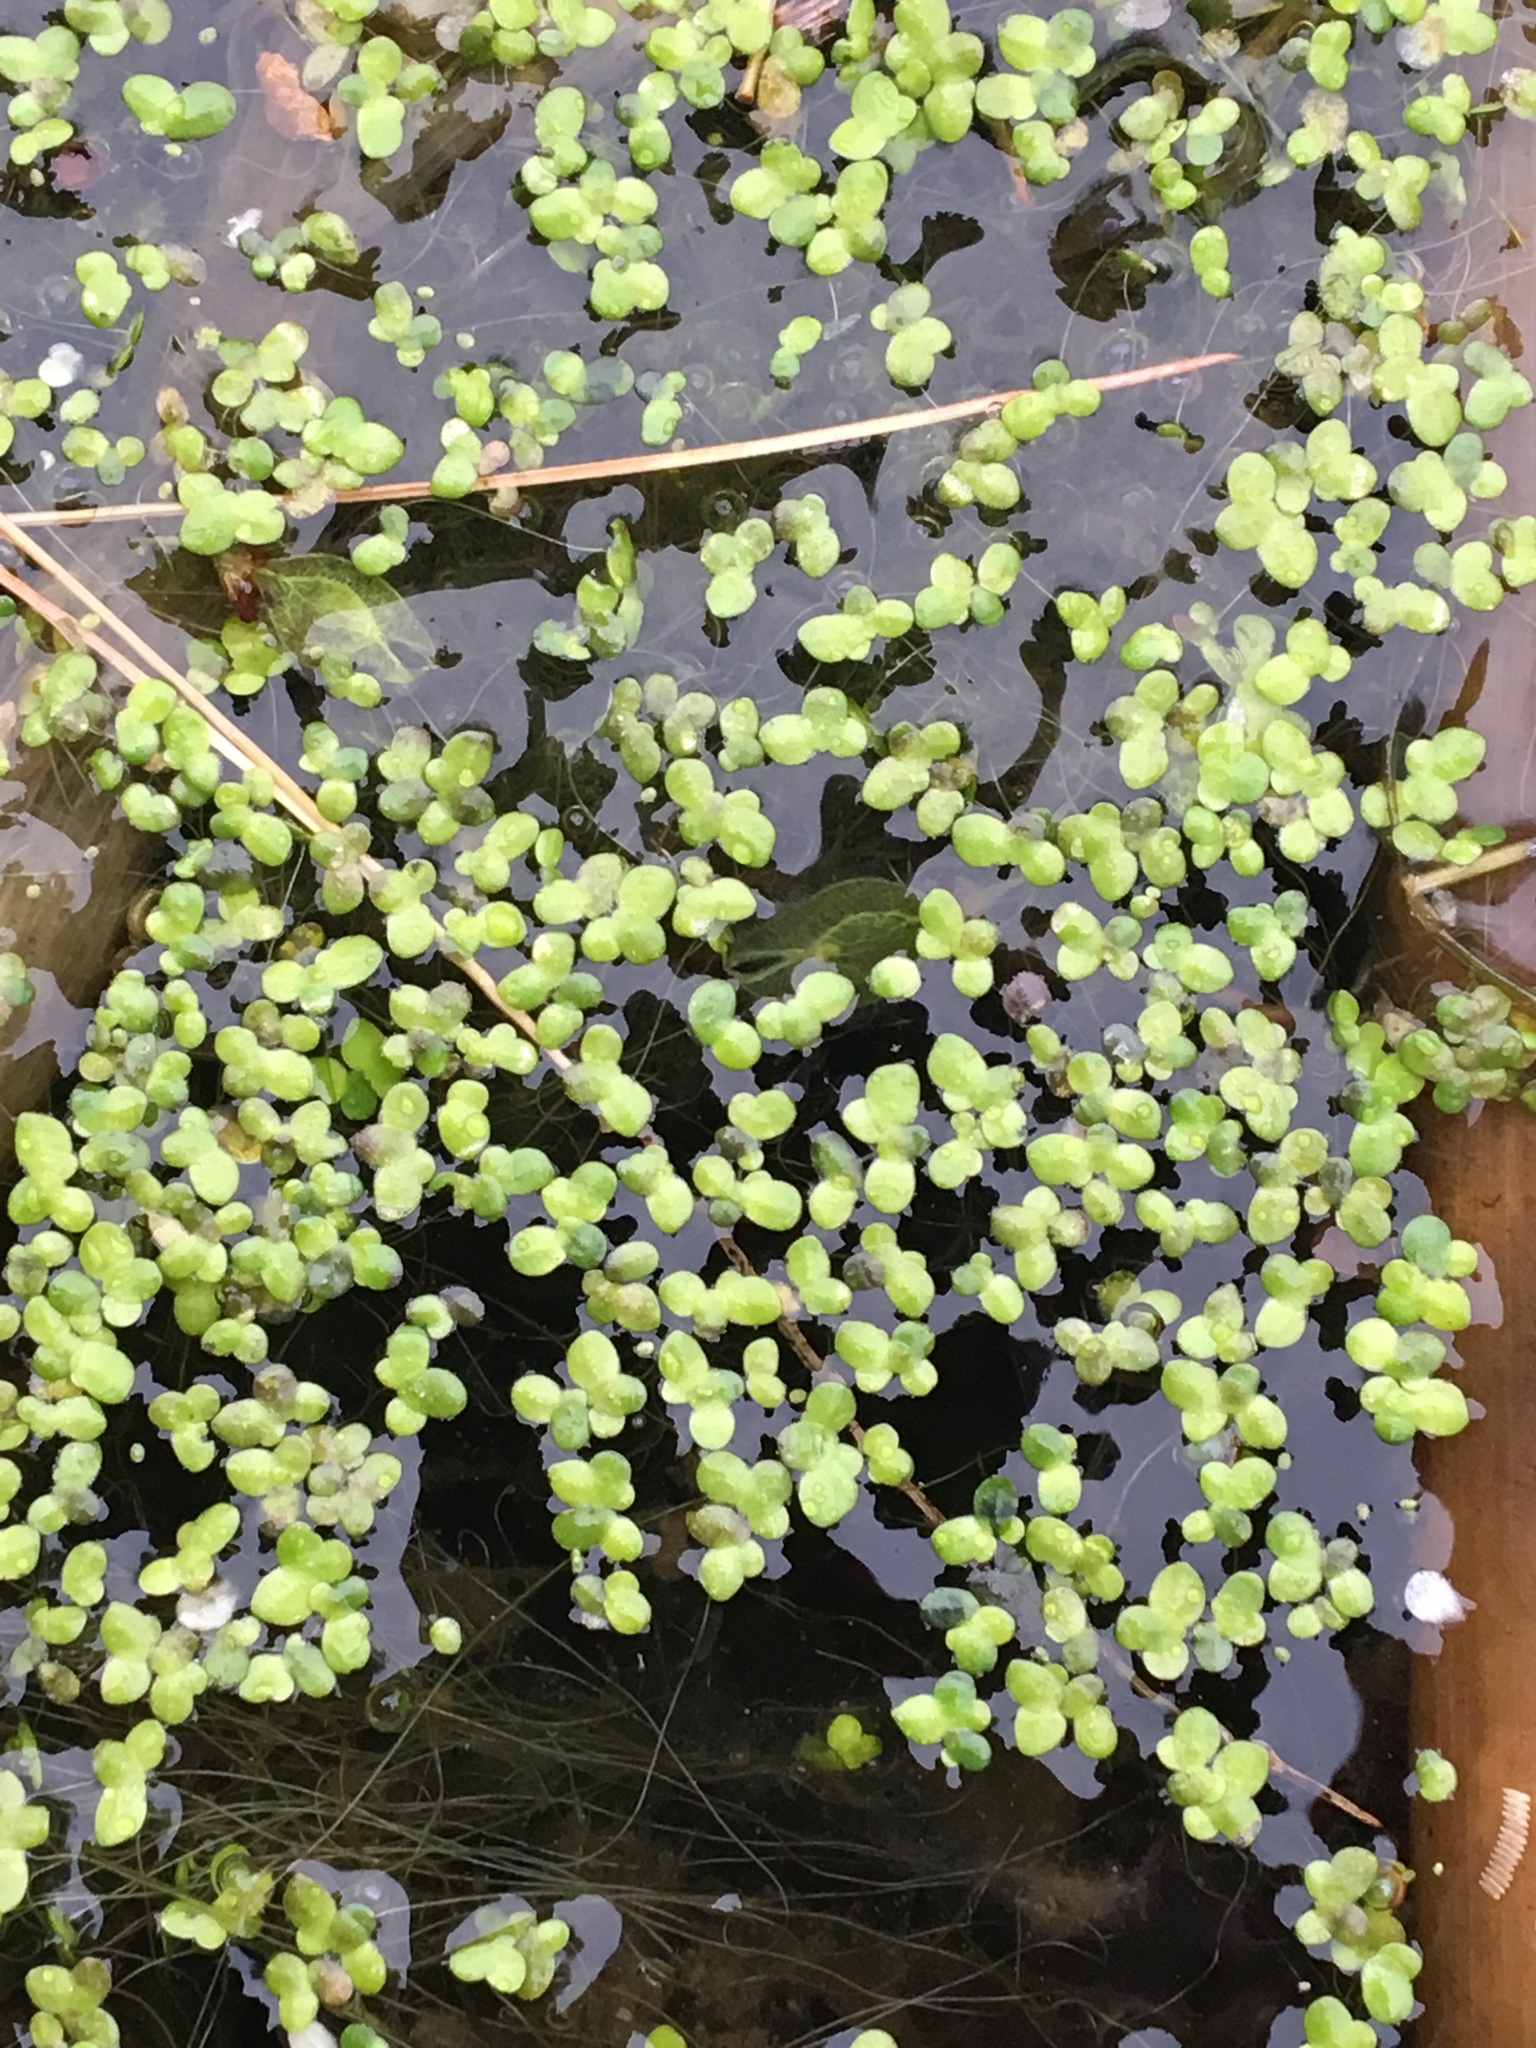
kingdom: Plantae
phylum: Tracheophyta
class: Liliopsida
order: Alismatales
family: Araceae
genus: Lemna
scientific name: Lemna minor
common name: Common duckweed
